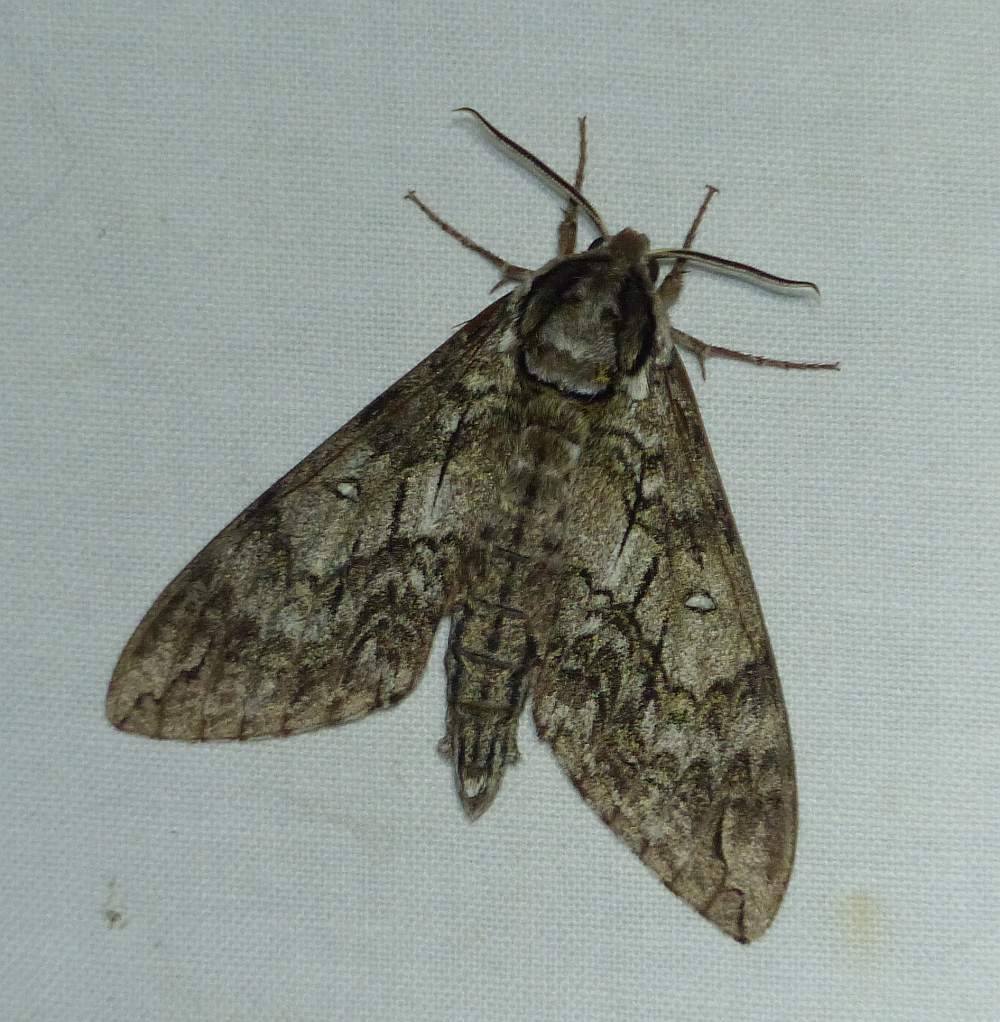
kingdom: Animalia
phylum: Arthropoda
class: Insecta
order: Lepidoptera
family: Sphingidae
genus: Ceratomia
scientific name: Ceratomia undulosa
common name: Waved sphinx
